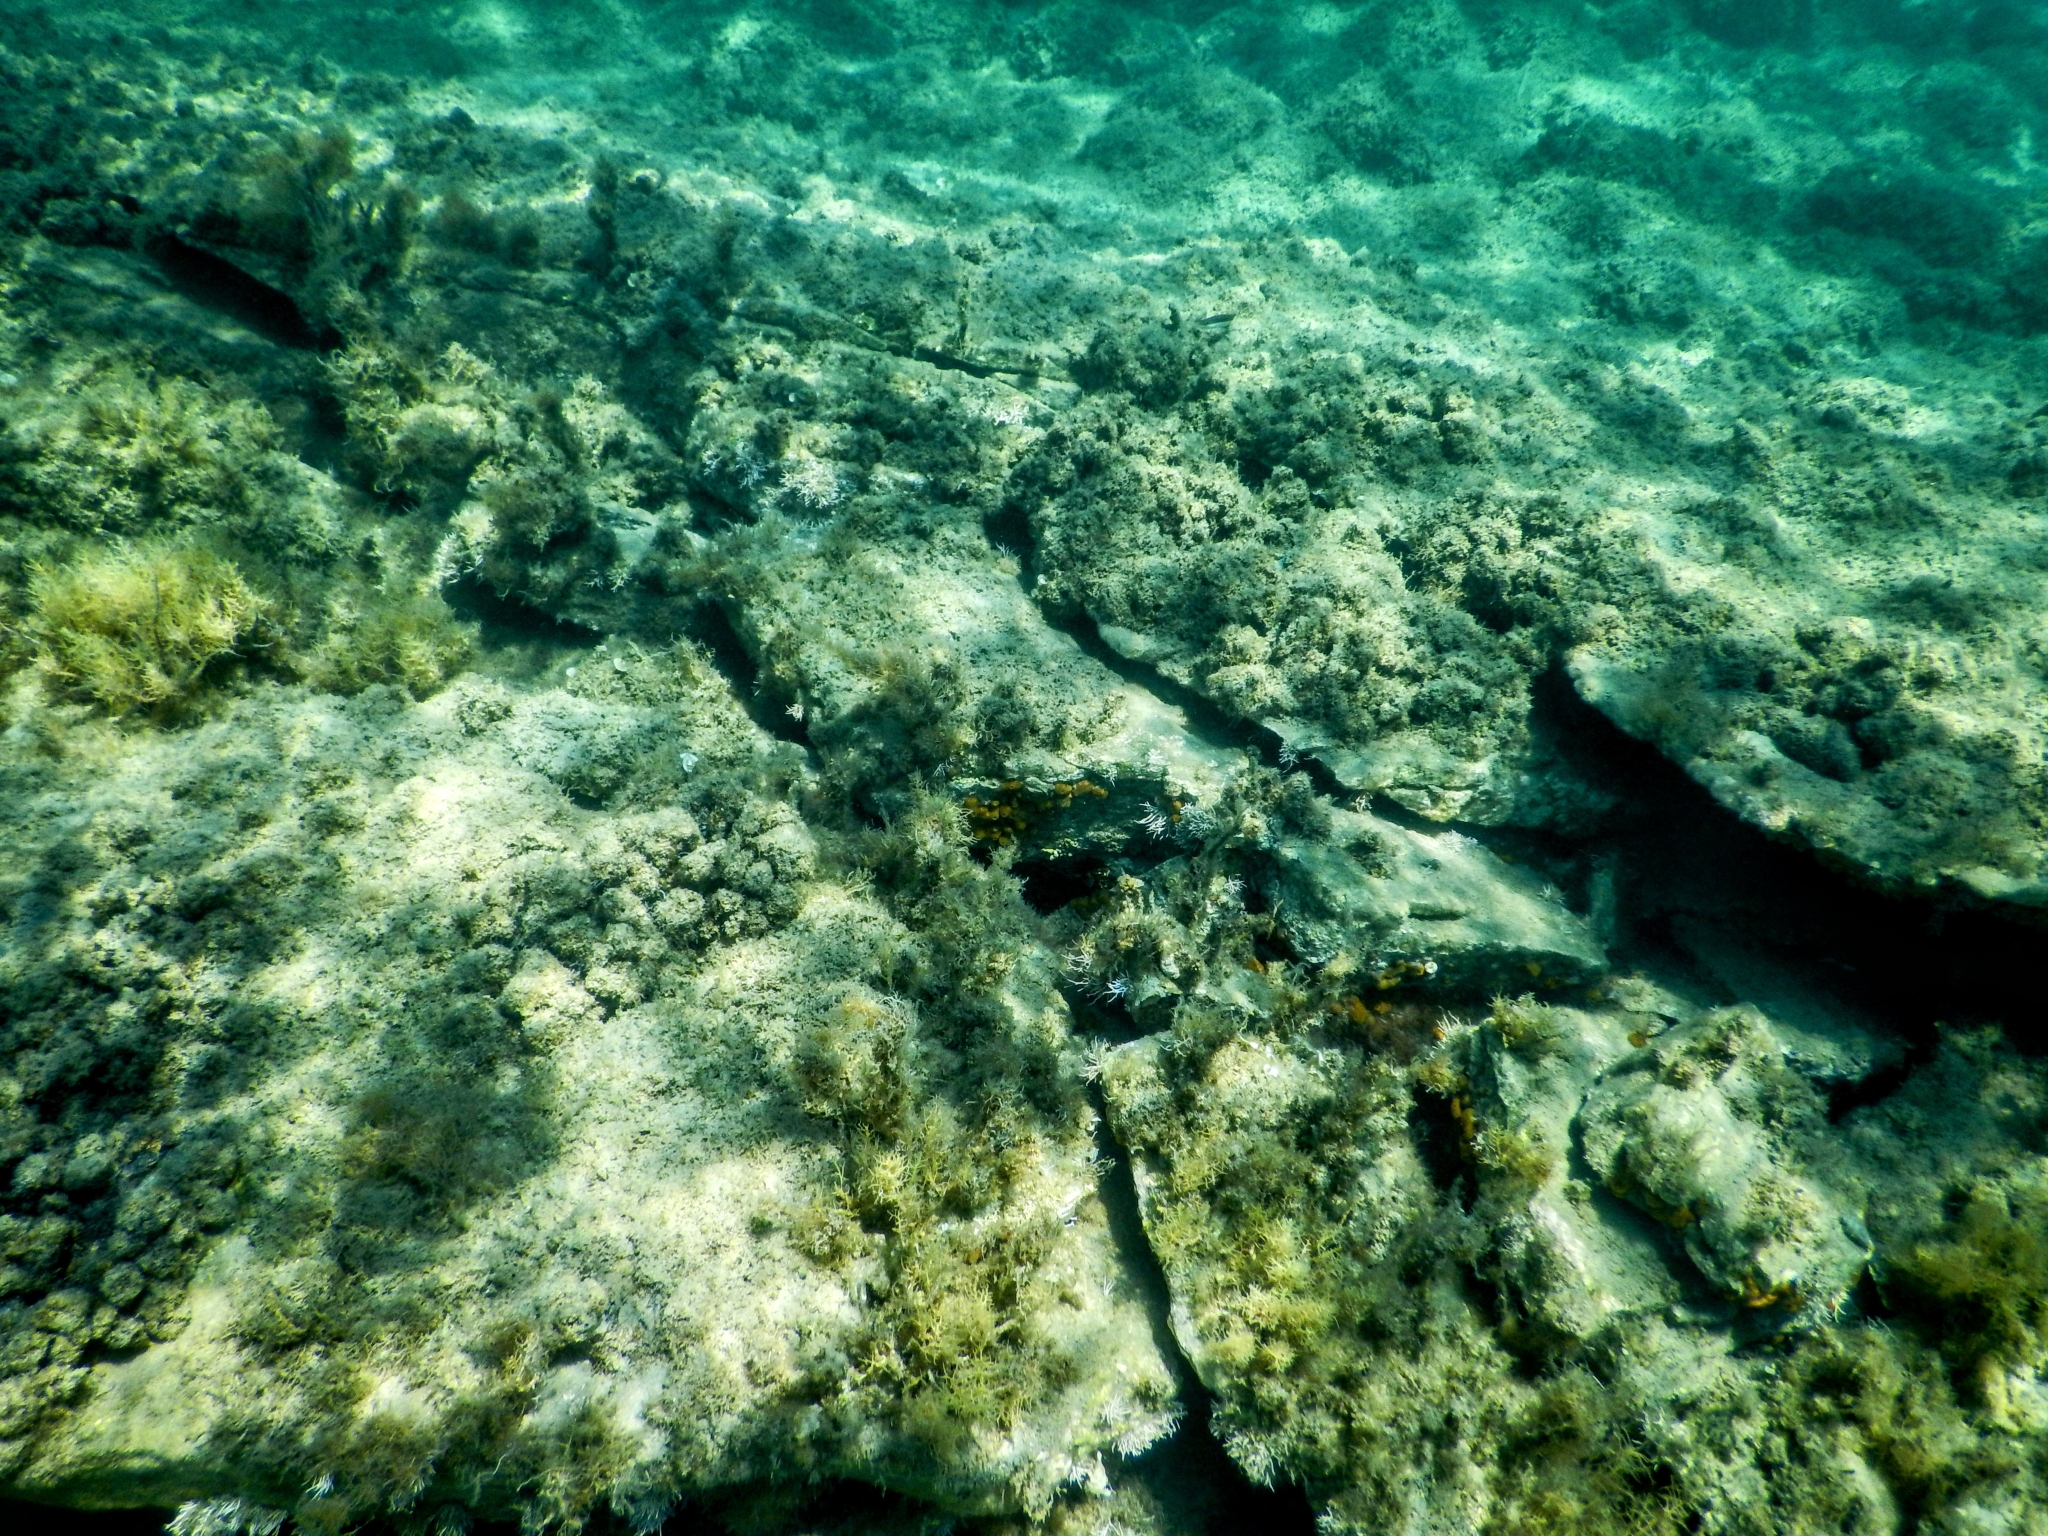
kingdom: Animalia
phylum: Porifera
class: Demospongiae
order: Chondrillida
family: Chondrillidae
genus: Chondrilla
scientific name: Chondrilla nucula
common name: Chicken liver sponge
